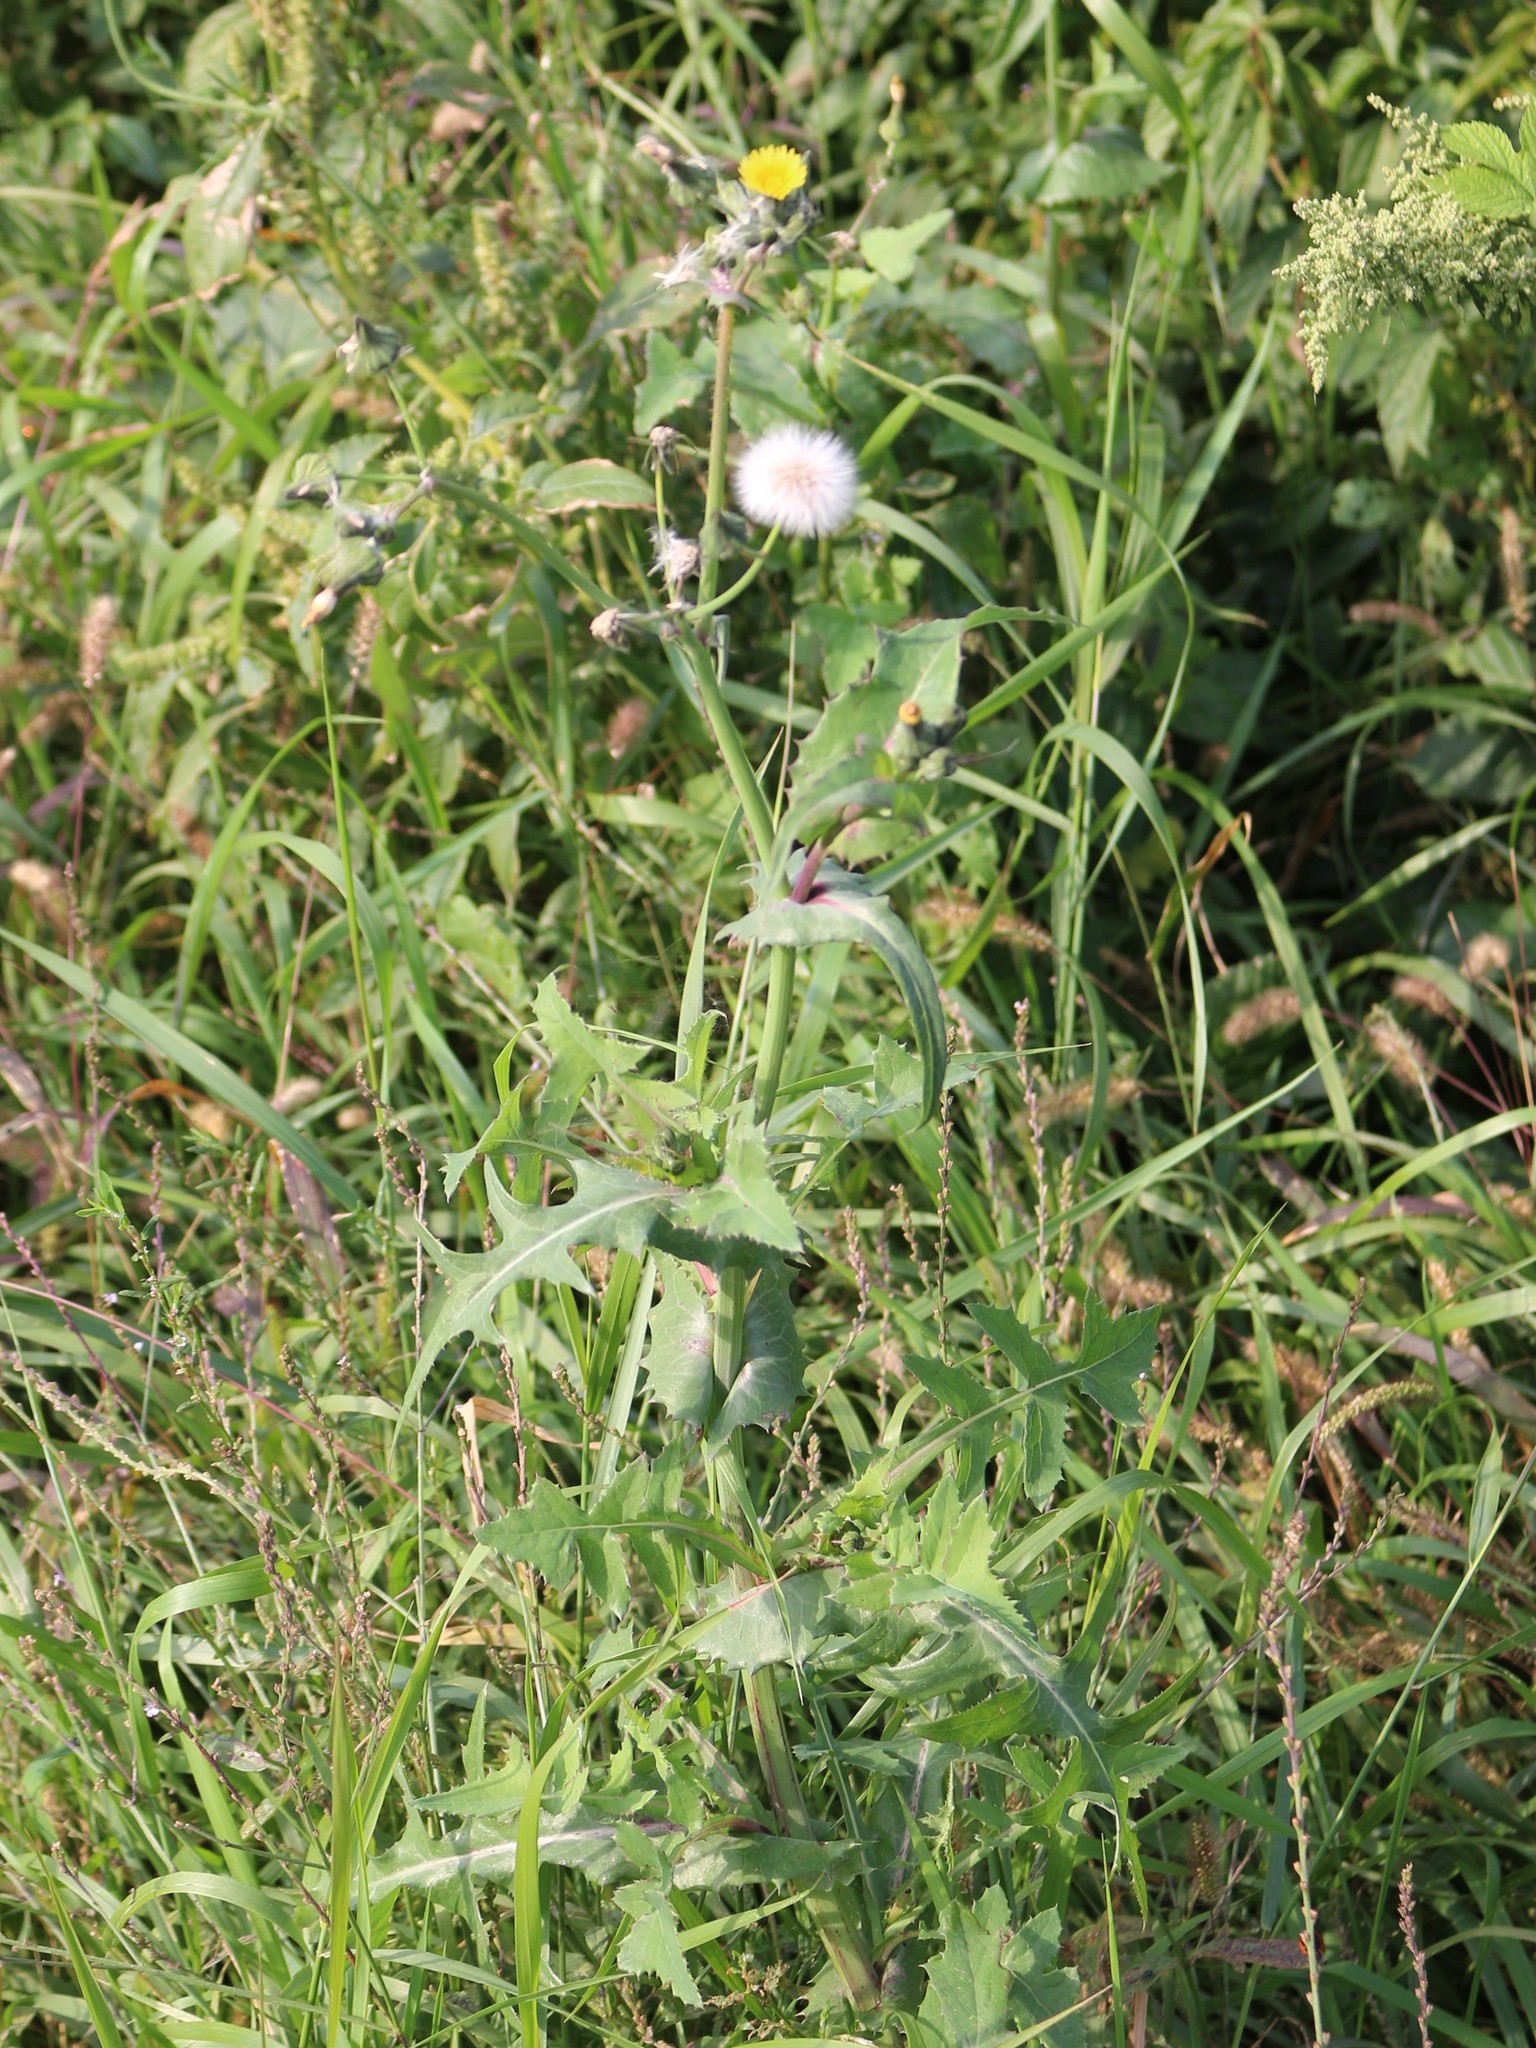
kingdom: Plantae
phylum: Tracheophyta
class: Magnoliopsida
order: Asterales
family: Asteraceae
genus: Sonchus
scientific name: Sonchus oleraceus
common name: Common sowthistle
